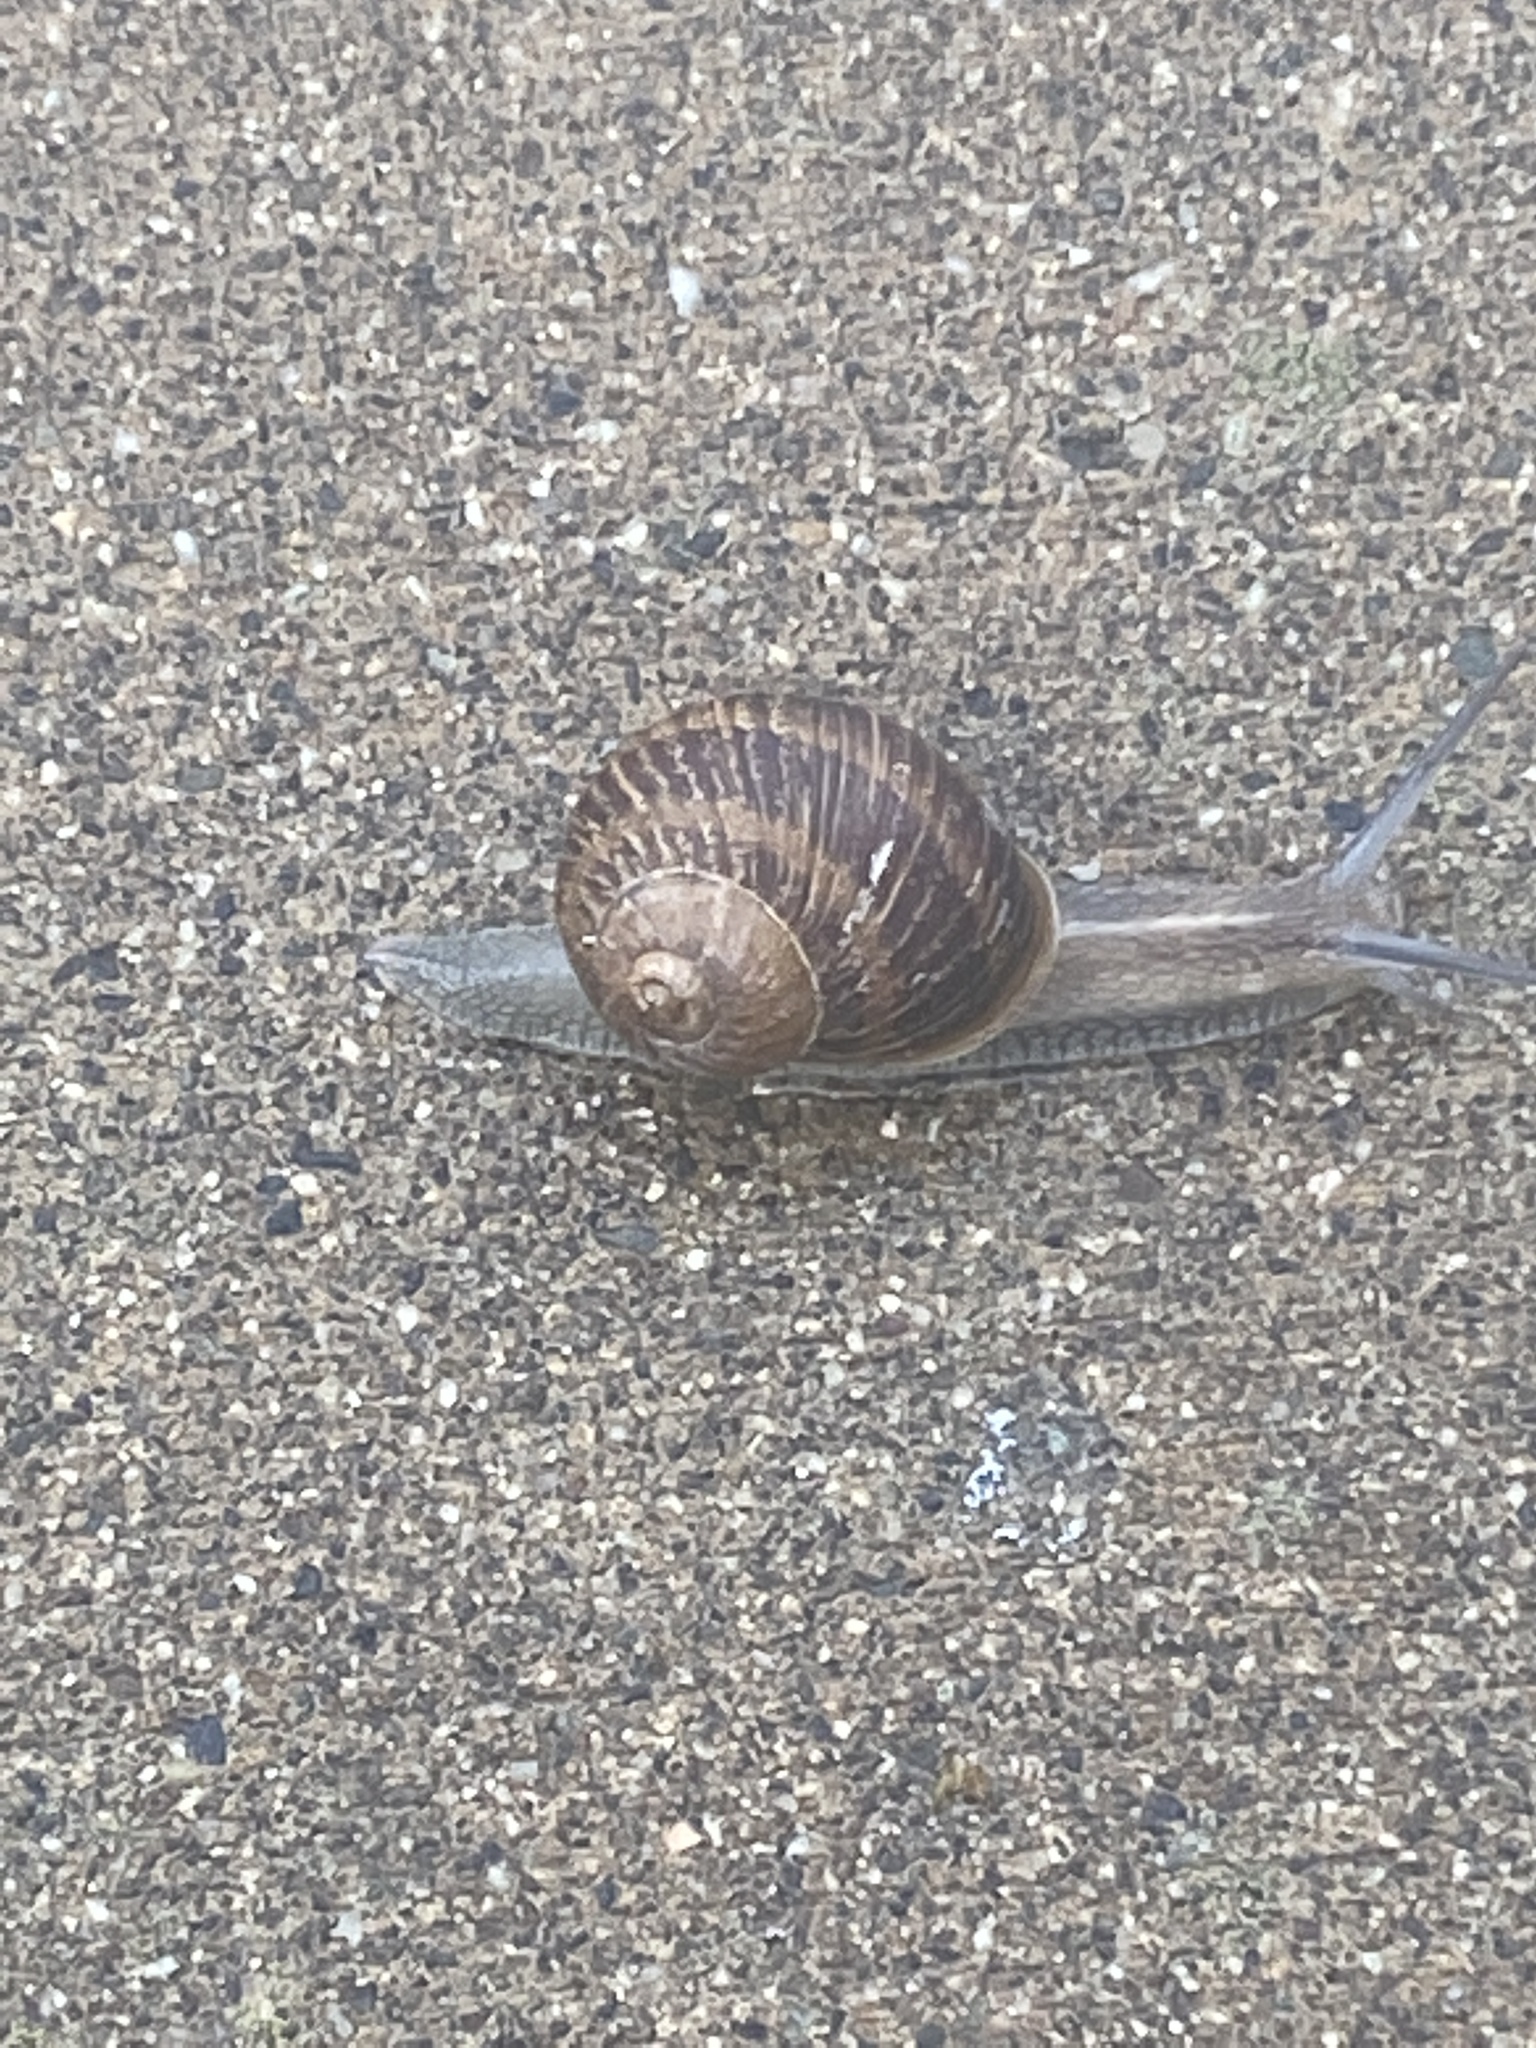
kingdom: Animalia
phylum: Mollusca
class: Gastropoda
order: Stylommatophora
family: Helicidae
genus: Cornu
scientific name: Cornu aspersum
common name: Brown garden snail
